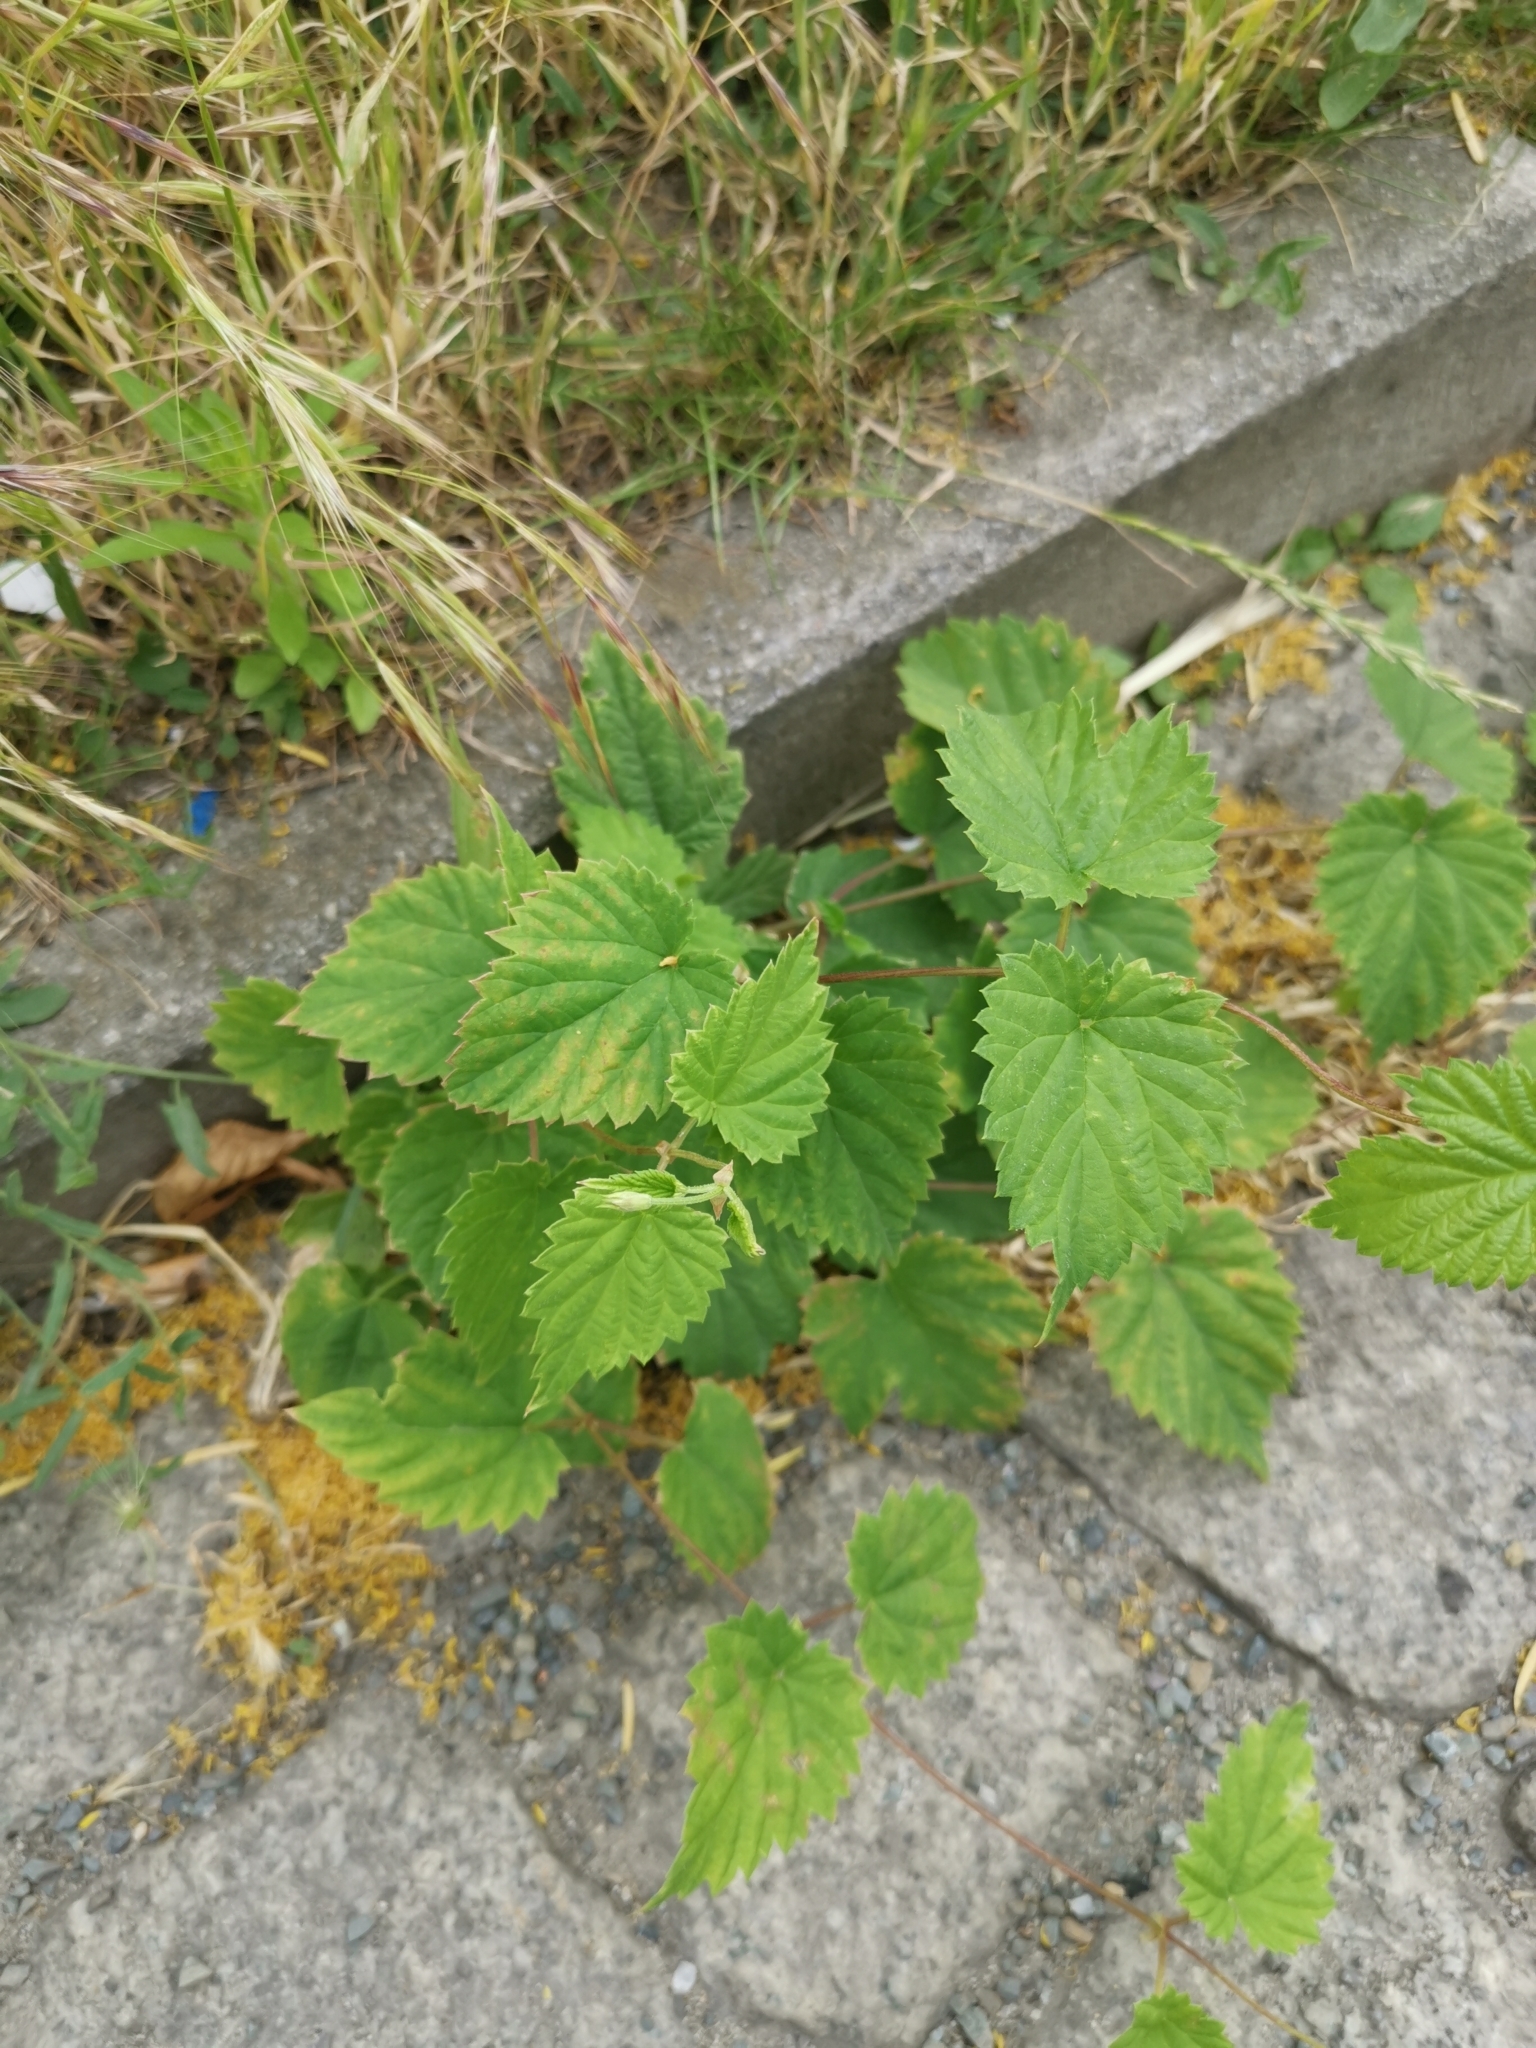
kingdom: Plantae
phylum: Tracheophyta
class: Magnoliopsida
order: Rosales
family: Cannabaceae
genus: Humulus
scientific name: Humulus lupulus
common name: Hop
